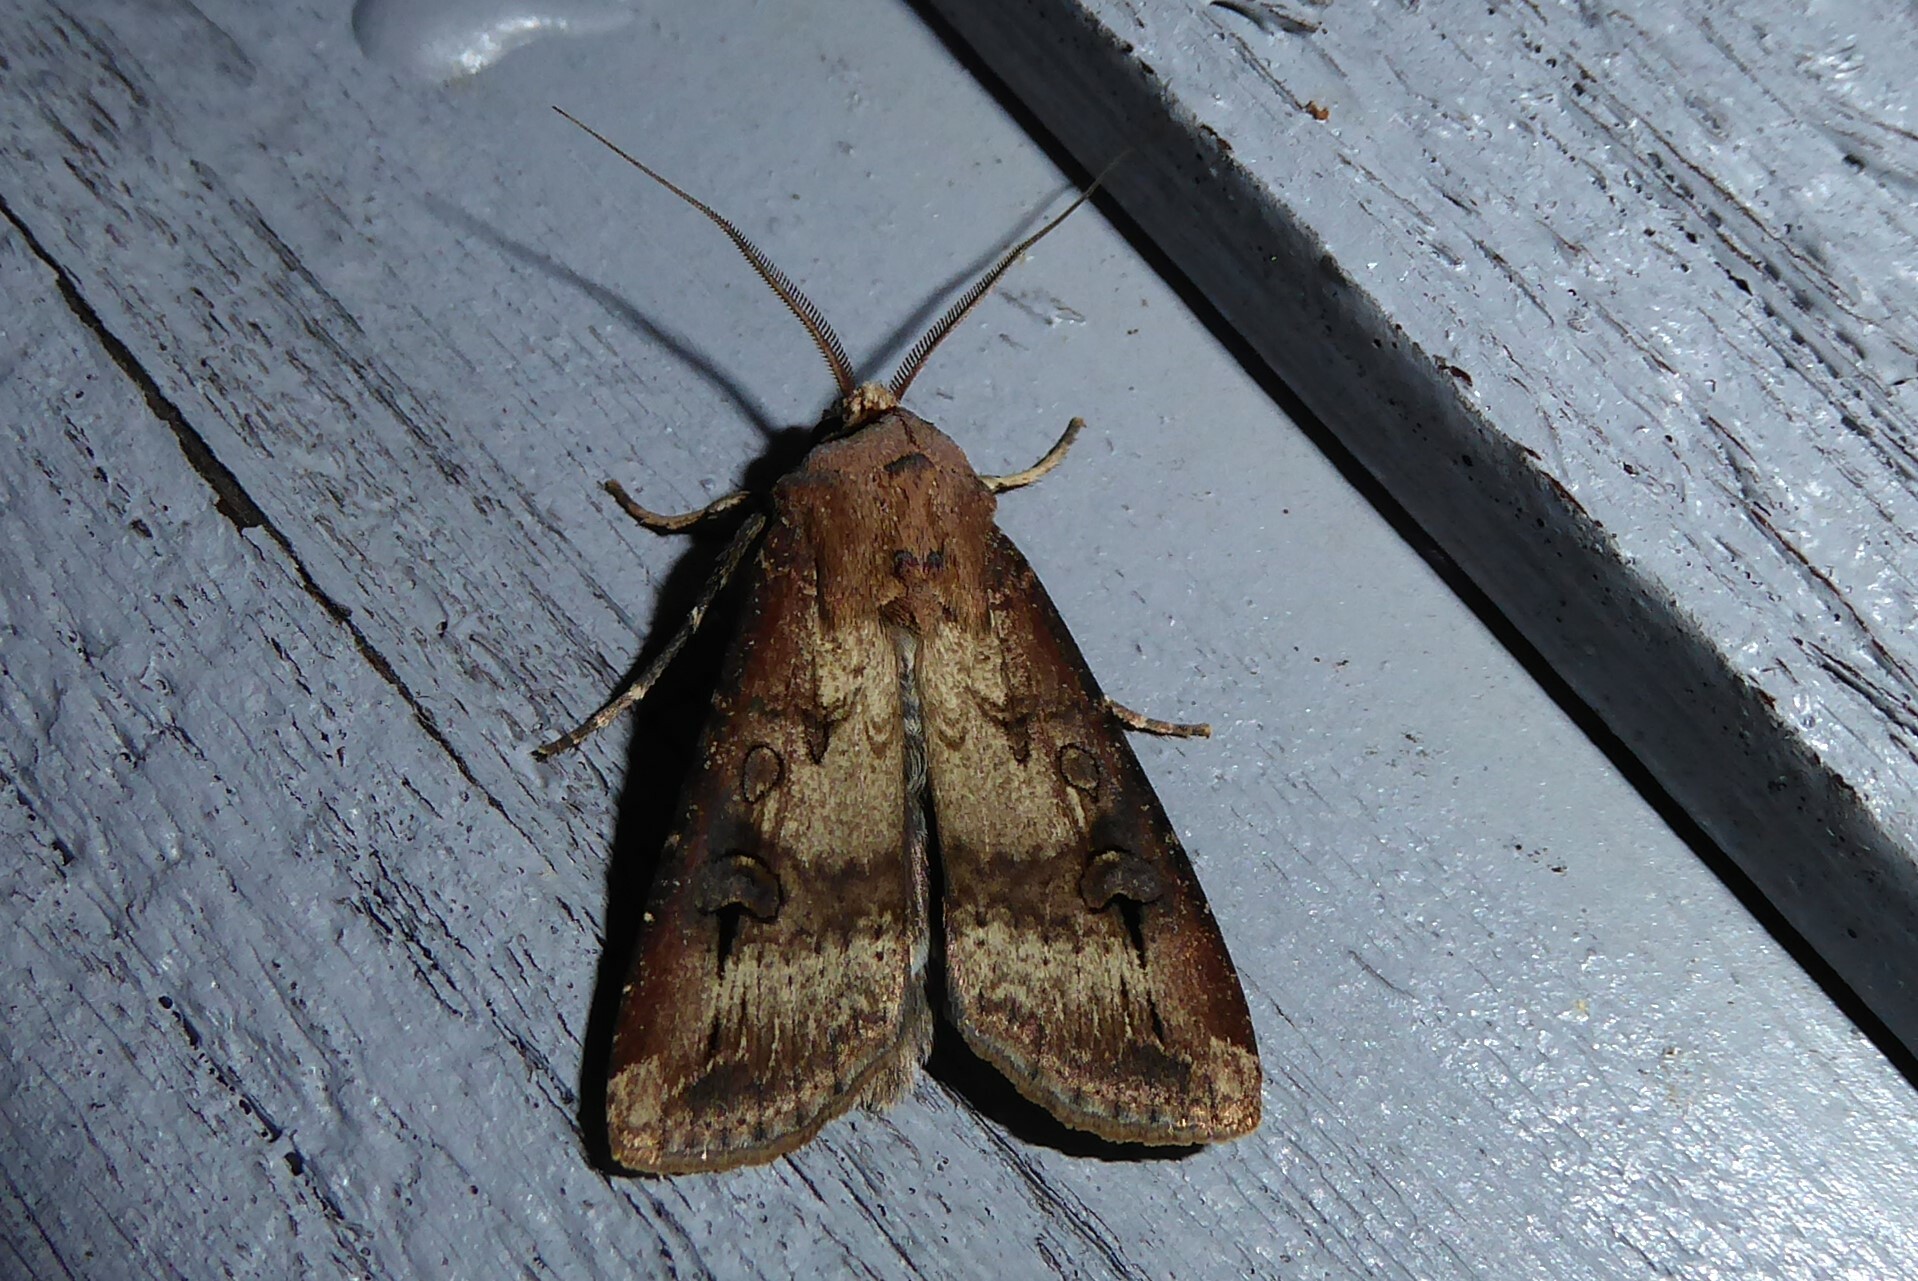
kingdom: Animalia
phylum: Arthropoda
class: Insecta
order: Lepidoptera
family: Noctuidae
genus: Agrotis
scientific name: Agrotis ipsilon
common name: Dark sword-grass
